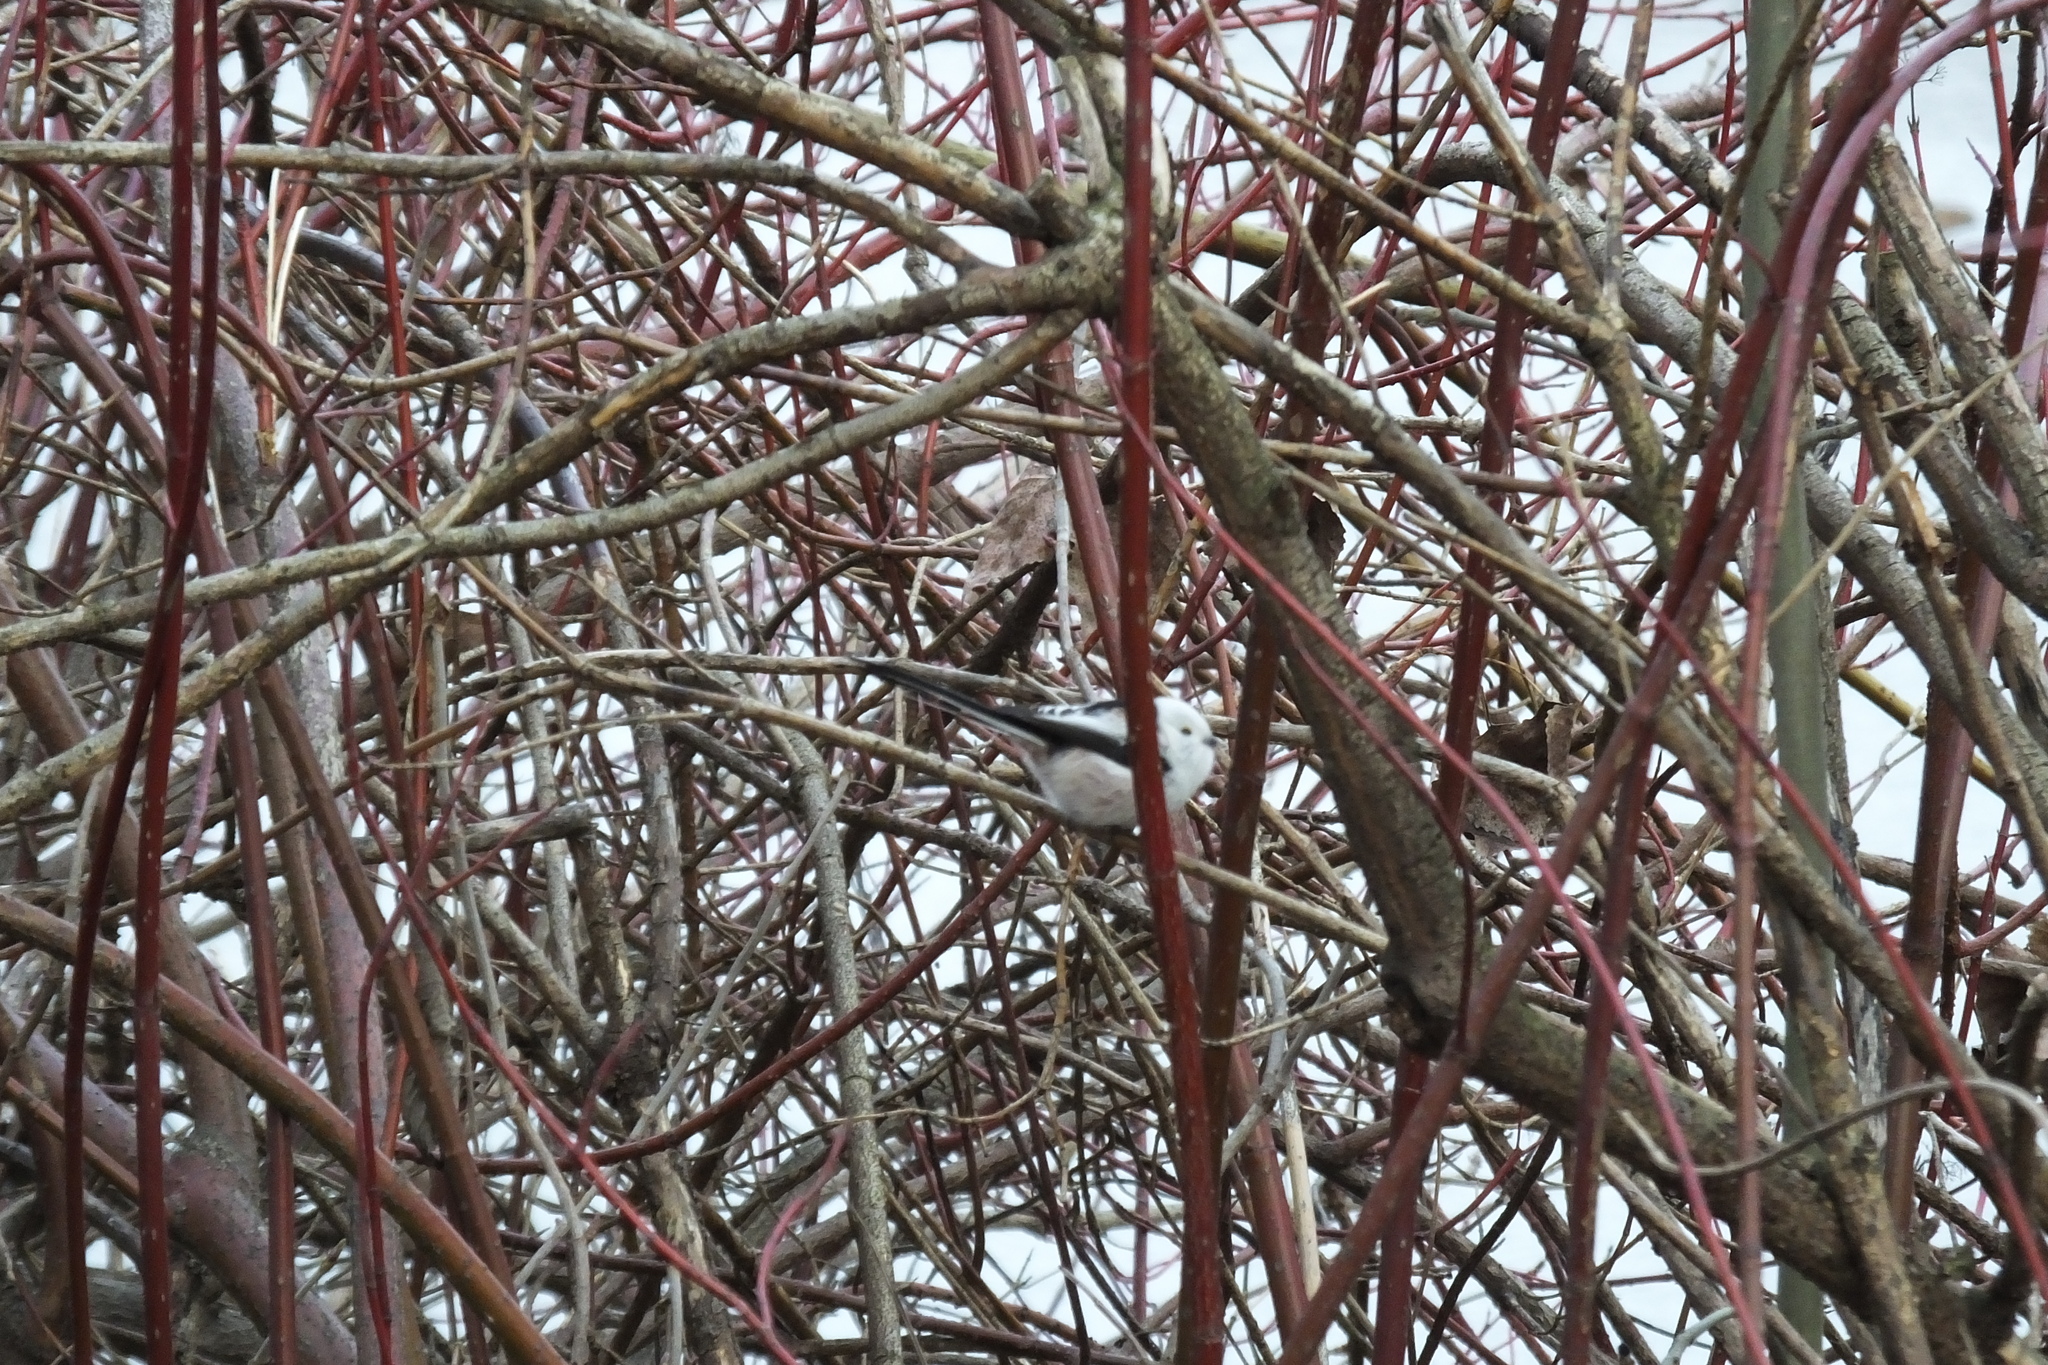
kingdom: Animalia
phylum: Chordata
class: Aves
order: Passeriformes
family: Aegithalidae
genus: Aegithalos
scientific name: Aegithalos caudatus
